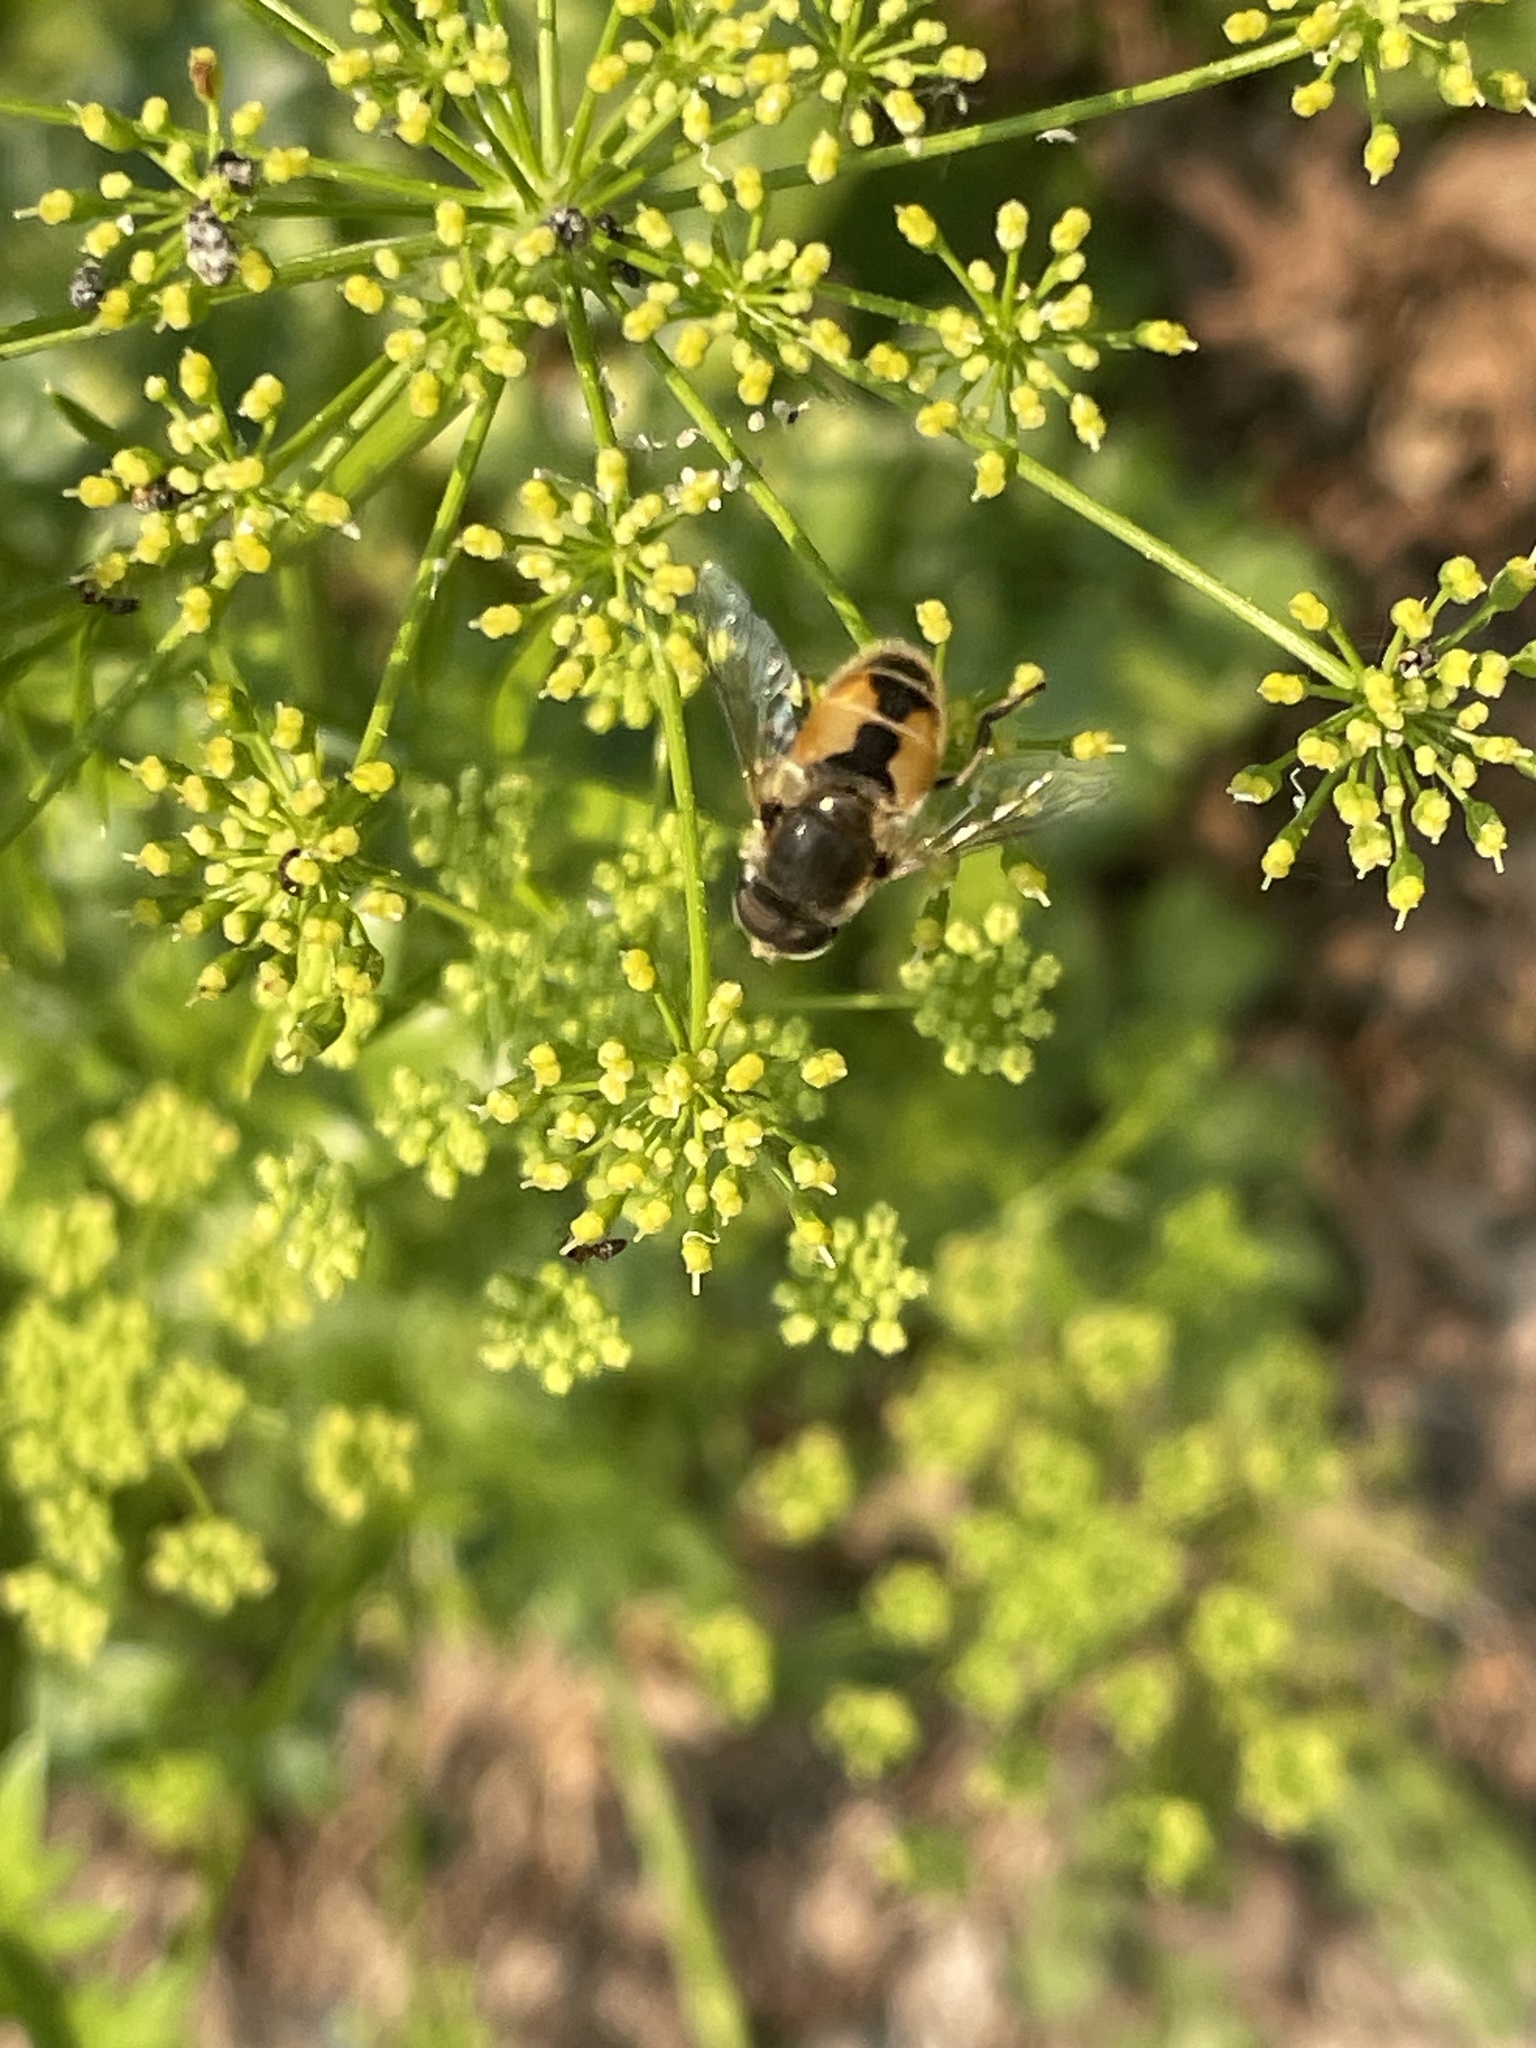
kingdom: Animalia
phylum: Arthropoda
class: Insecta
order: Diptera
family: Syrphidae
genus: Eristalis
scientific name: Eristalis arbustorum
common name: Hover fly
